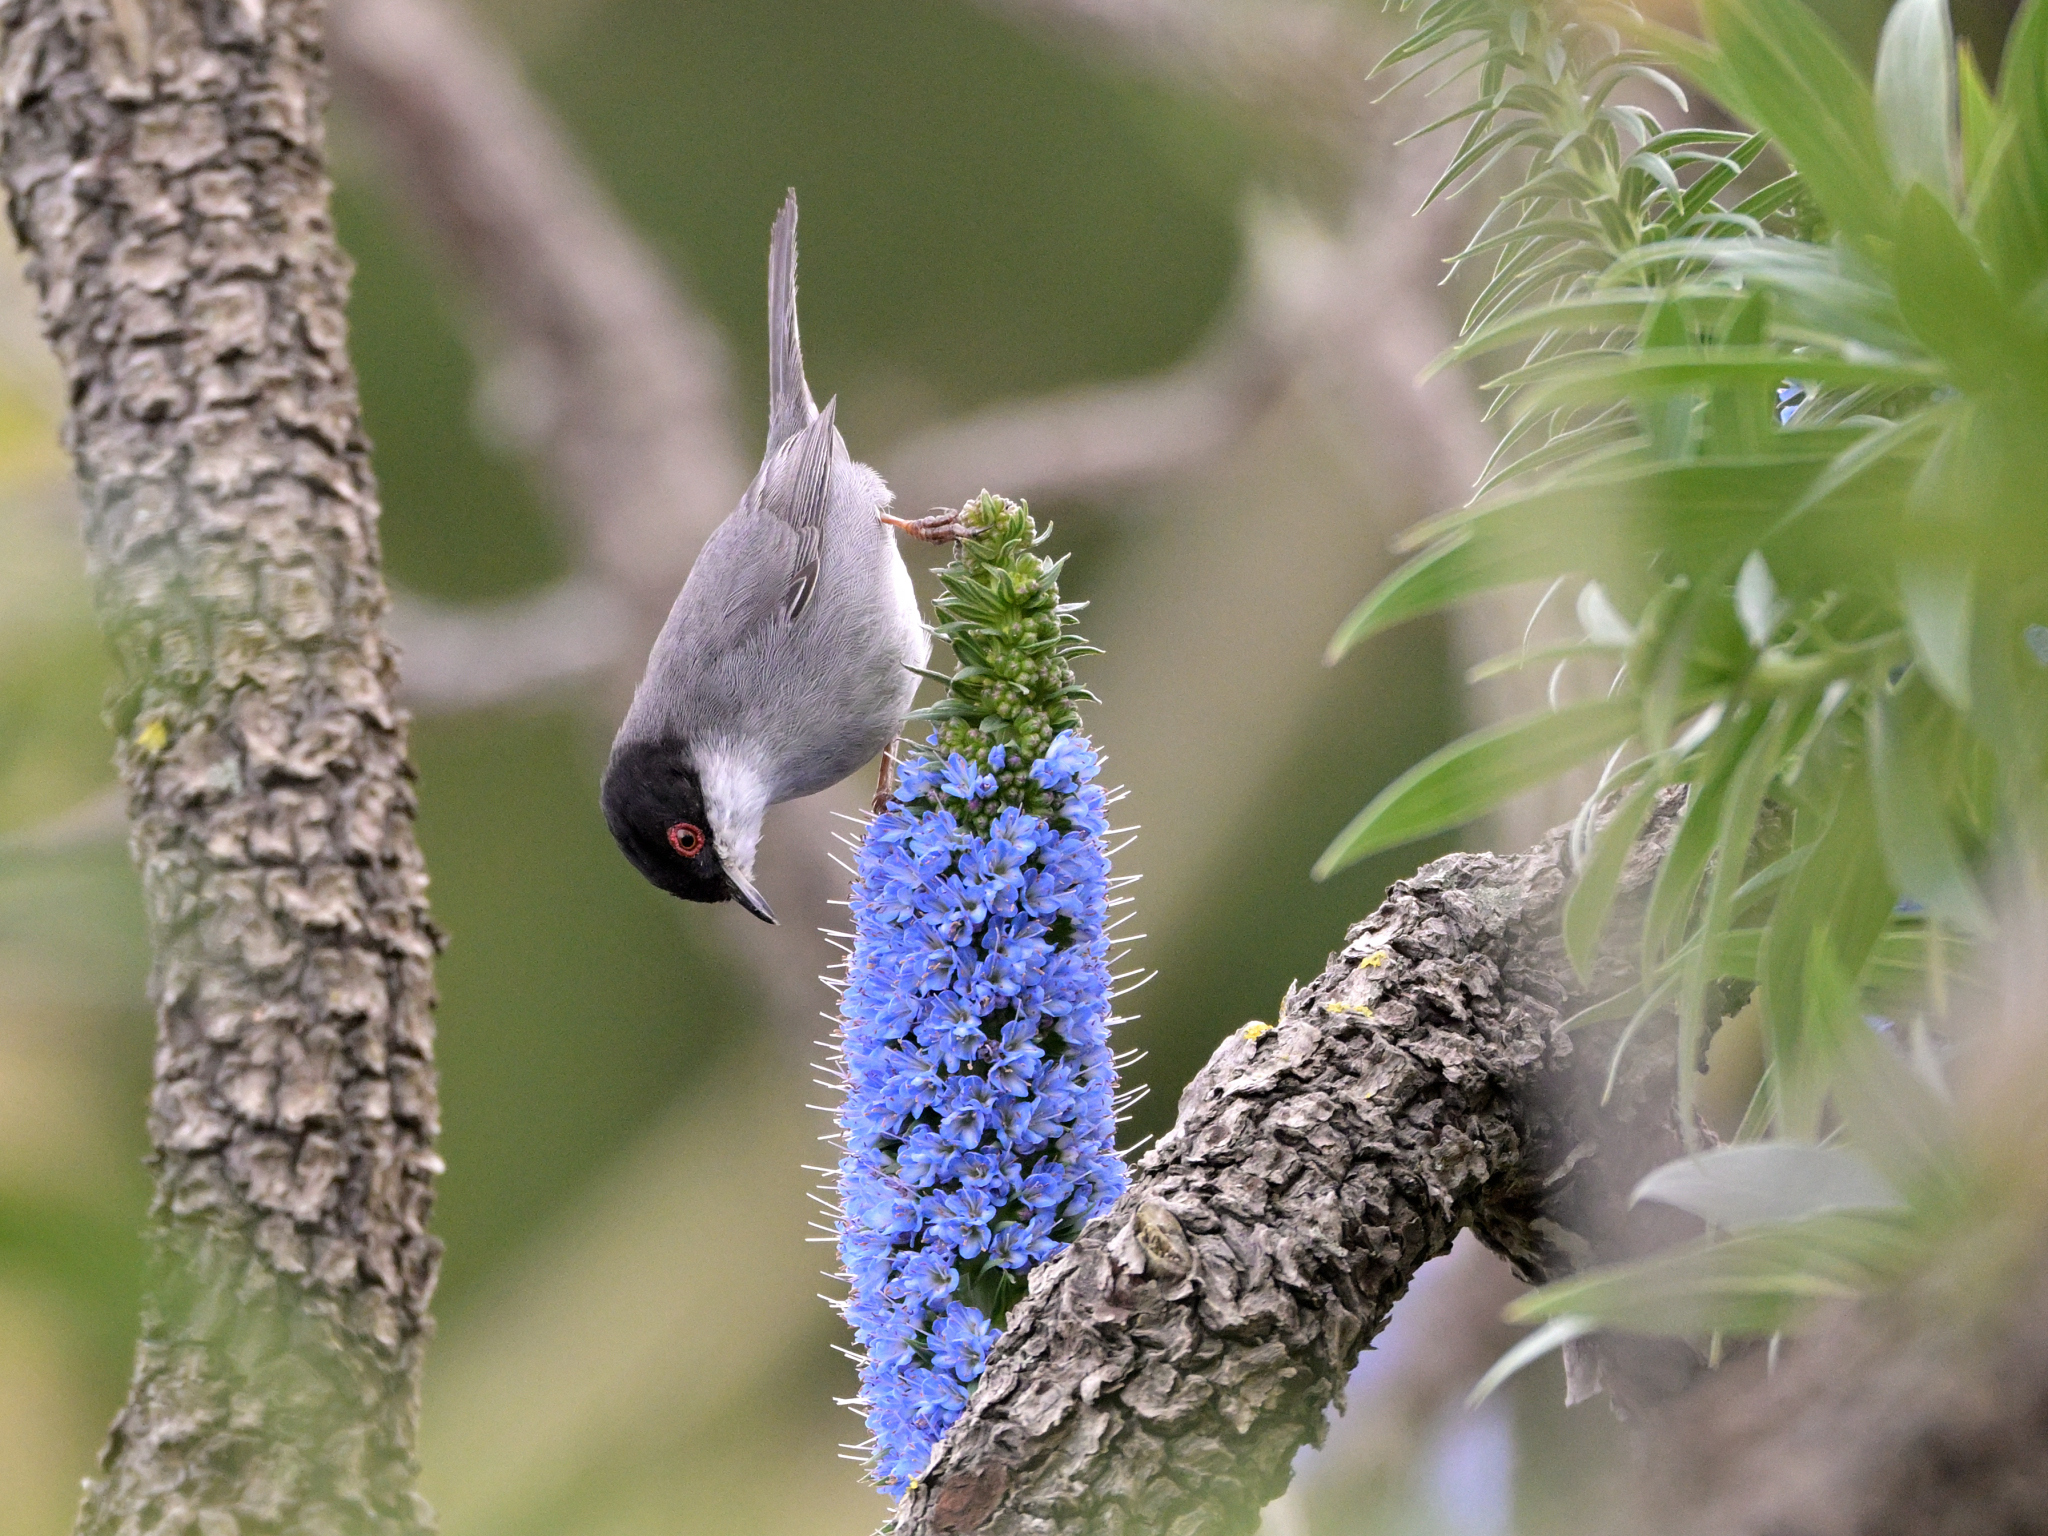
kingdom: Animalia
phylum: Chordata
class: Aves
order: Passeriformes
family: Sylviidae
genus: Curruca
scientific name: Curruca melanocephala
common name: Sardinian warbler
